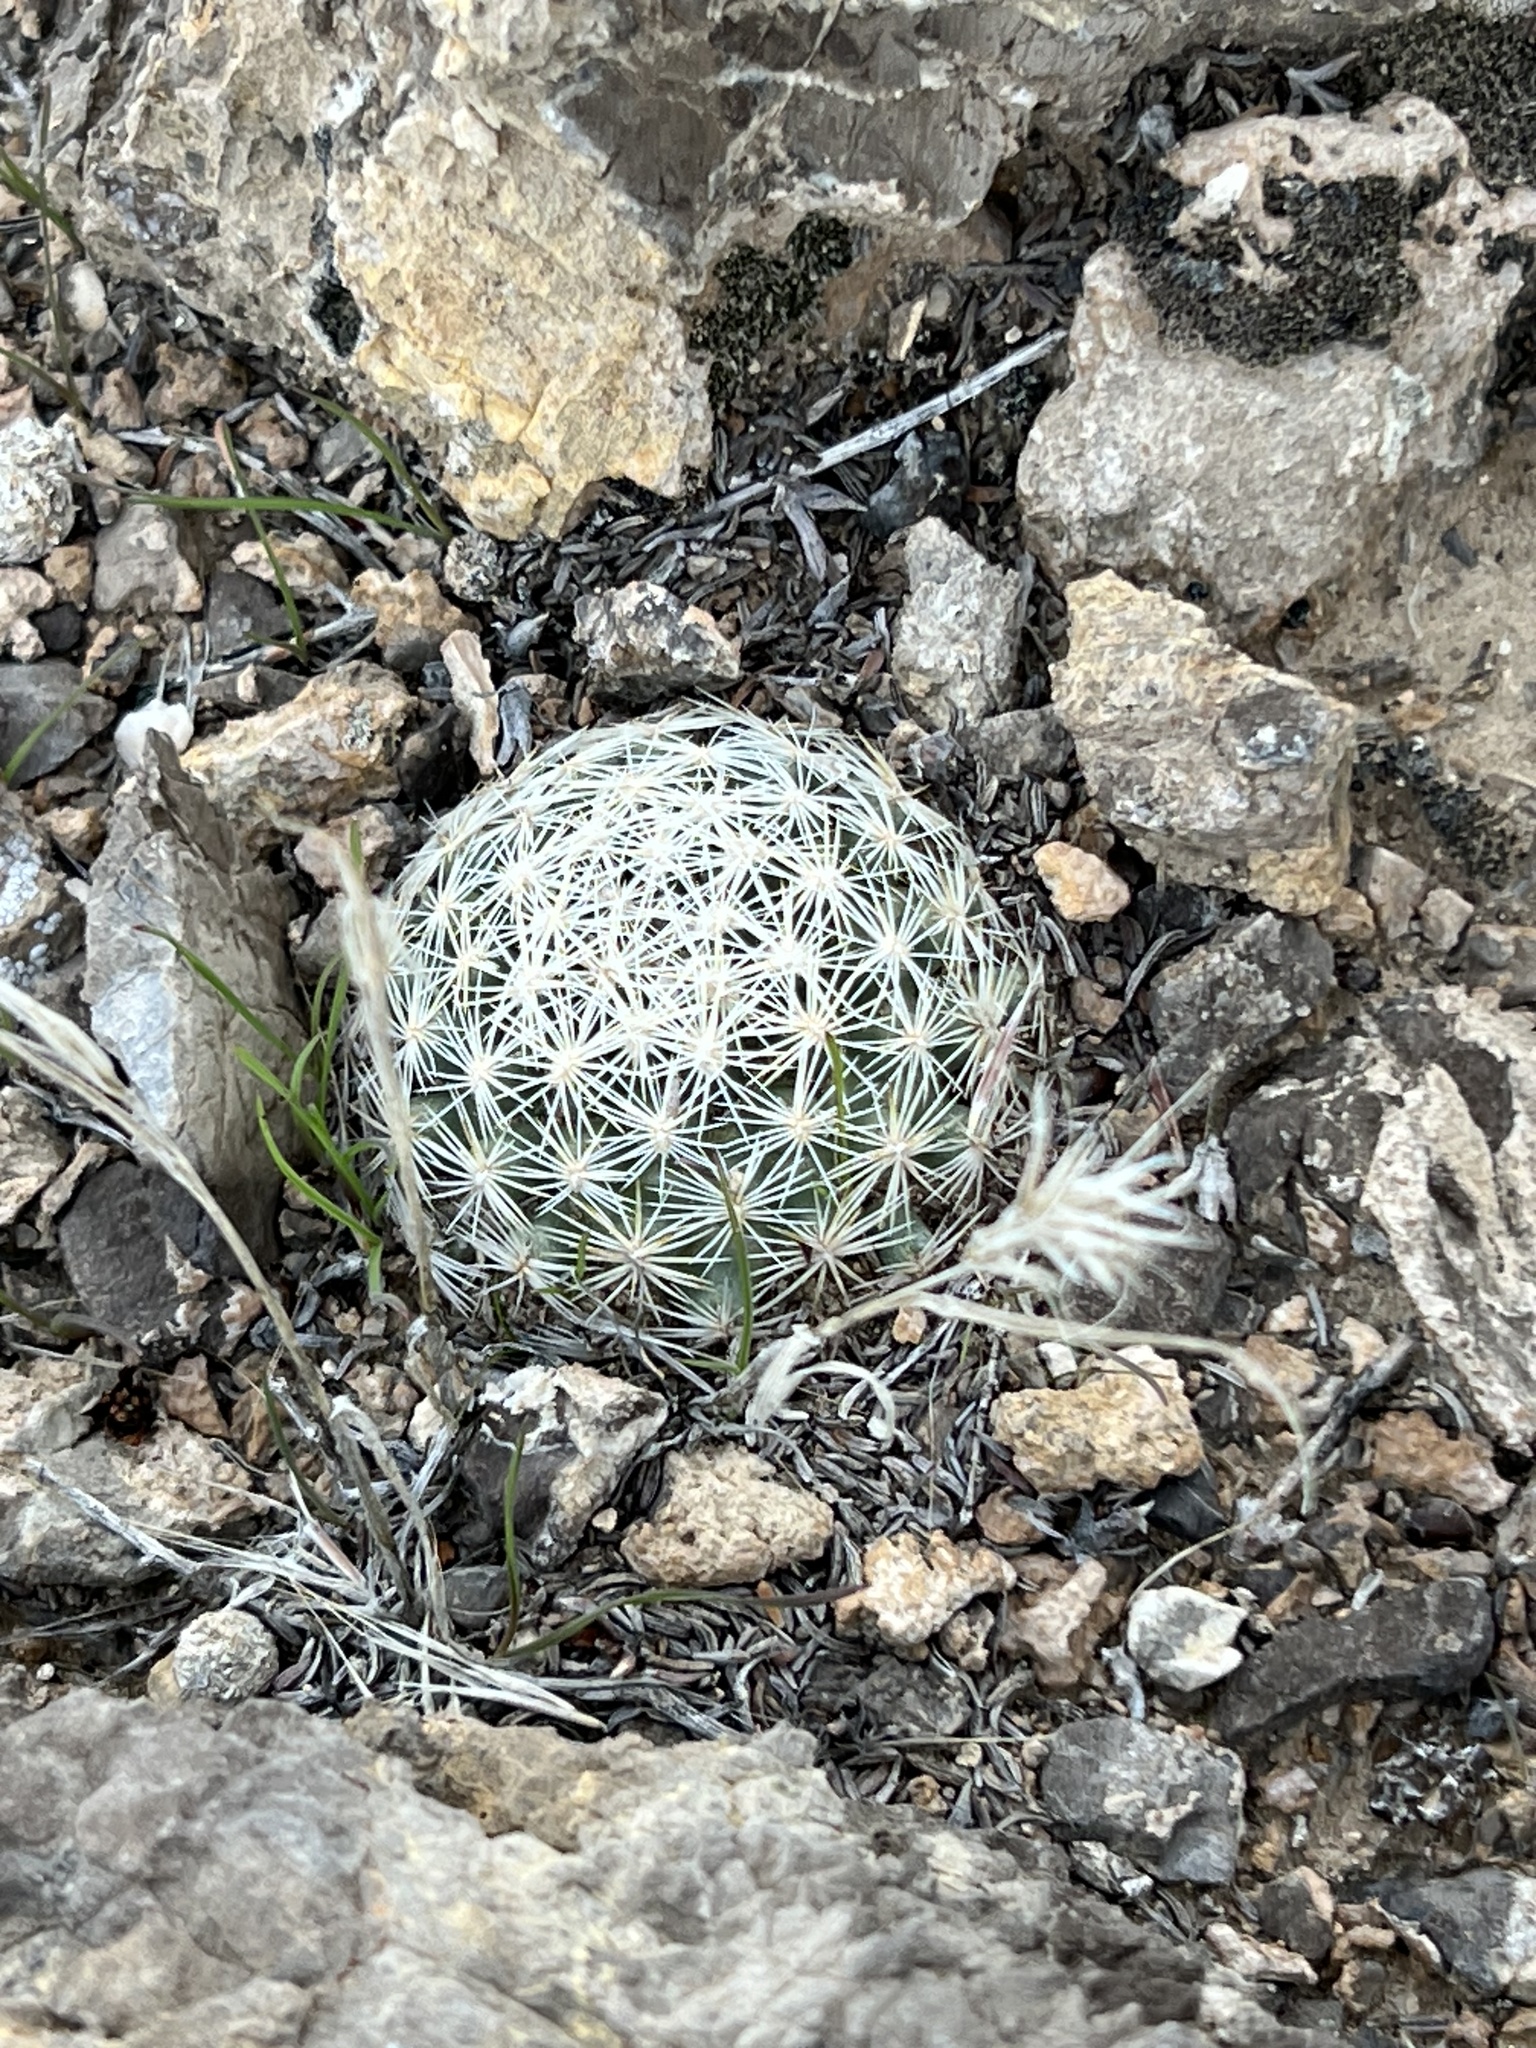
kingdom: Plantae
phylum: Tracheophyta
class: Magnoliopsida
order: Caryophyllales
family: Cactaceae
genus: Pelecyphora
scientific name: Pelecyphora dasyacantha
